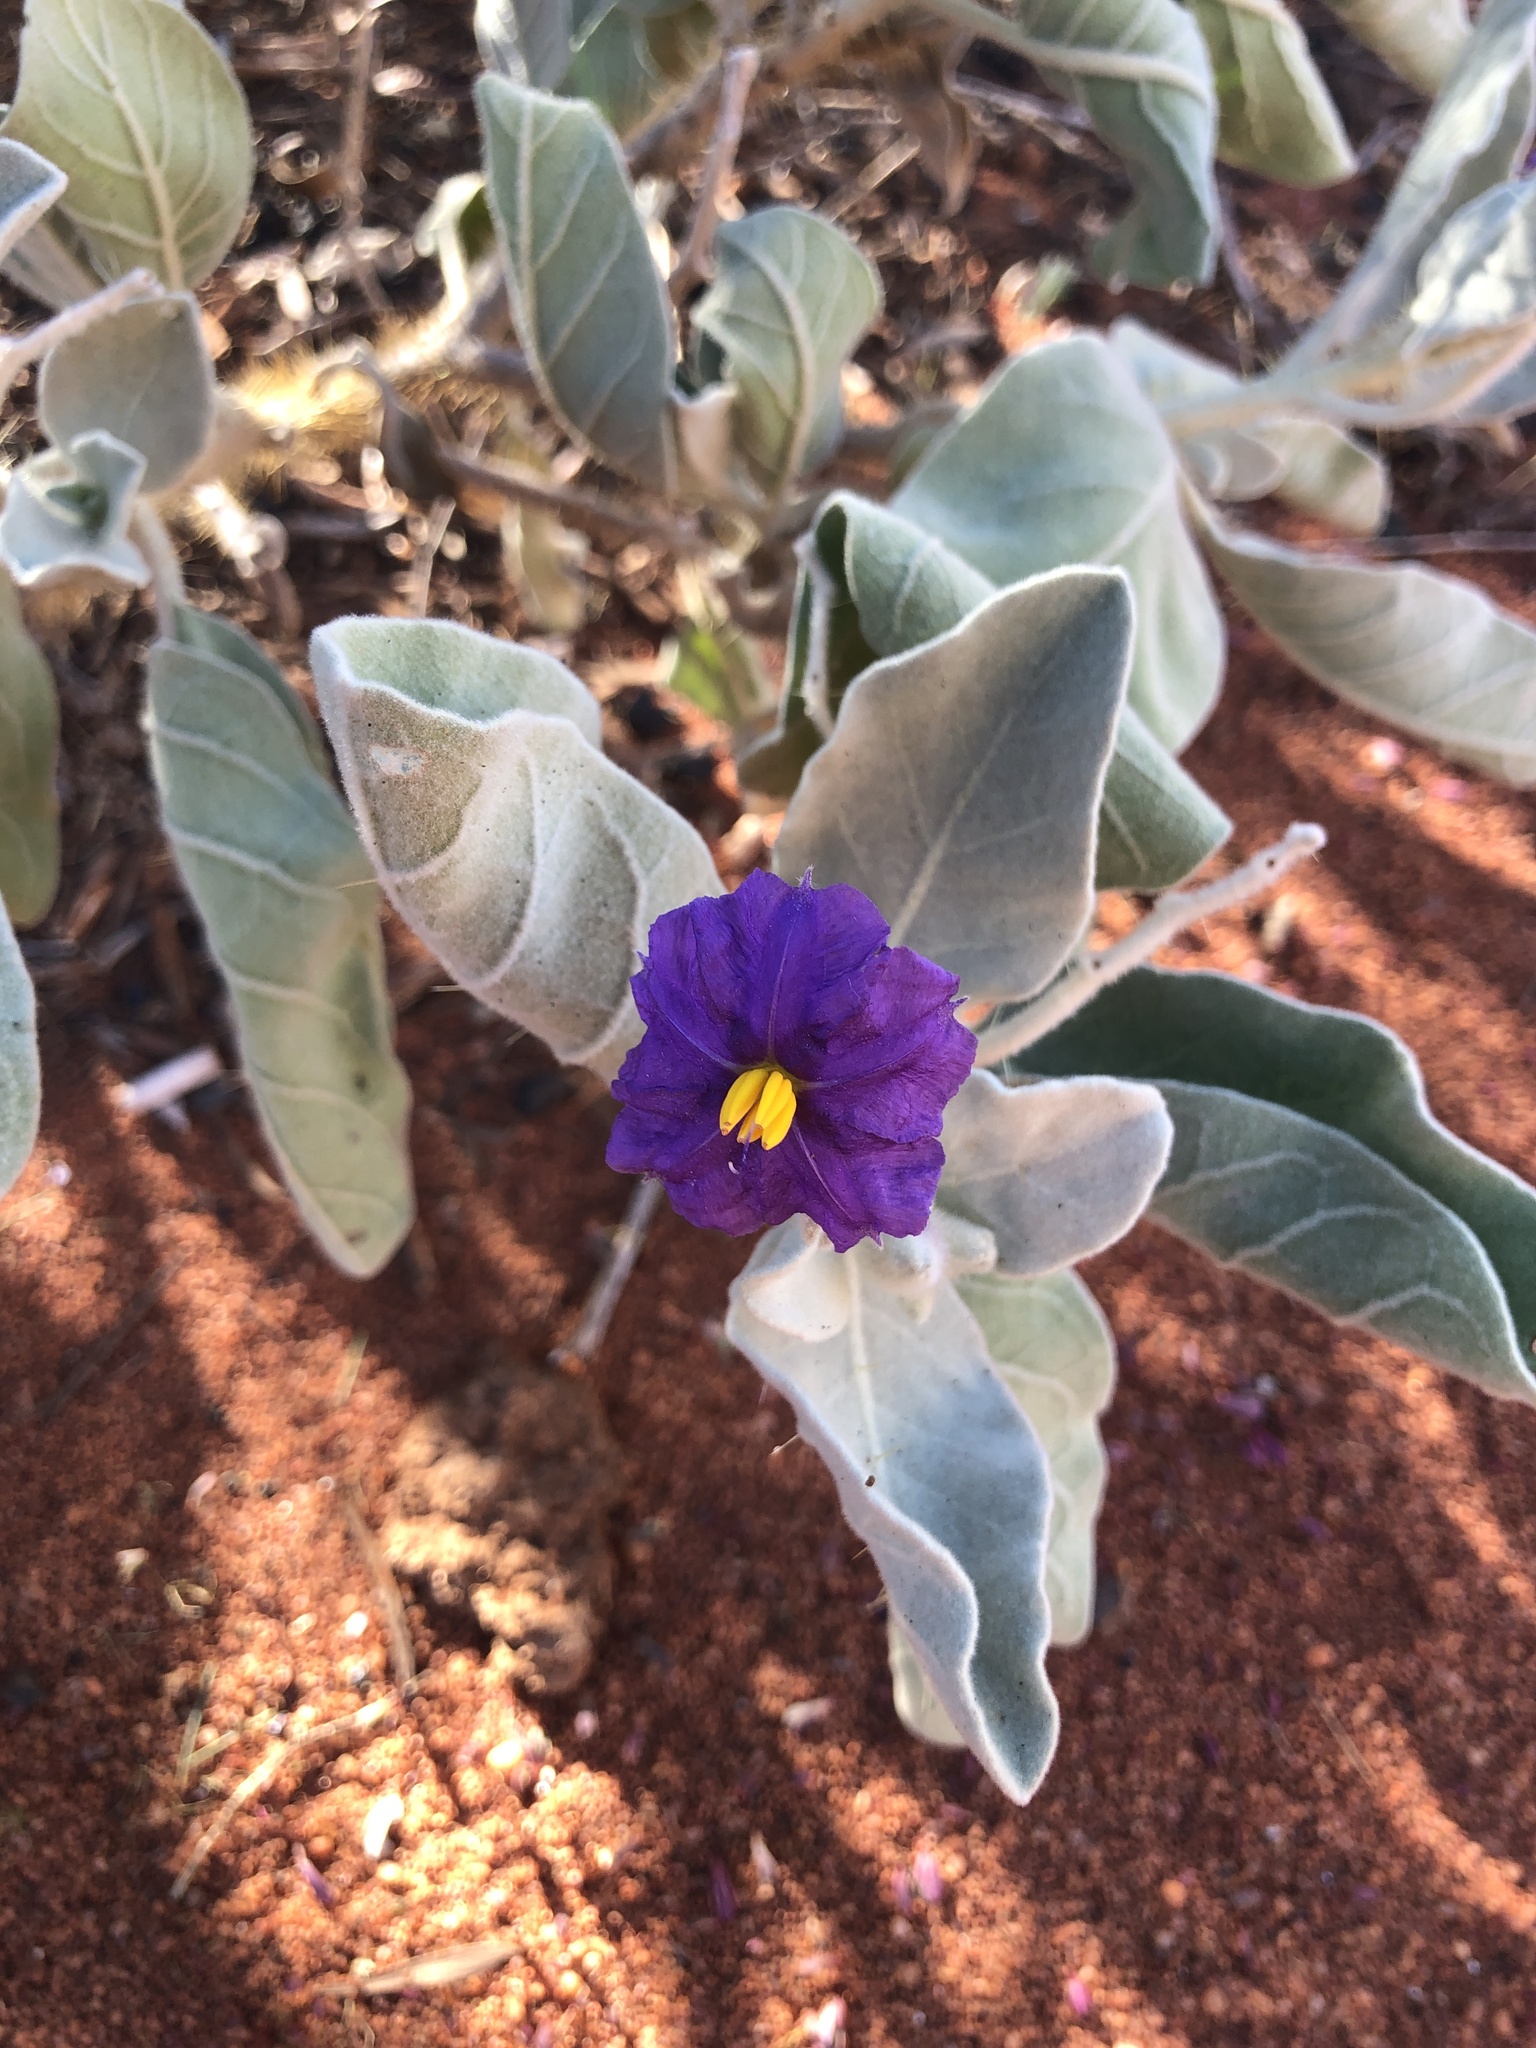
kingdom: Plantae
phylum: Tracheophyta
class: Magnoliopsida
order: Solanales
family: Solanaceae
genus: Solanum
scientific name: Solanum lasiophyllum
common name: Flannelbush
